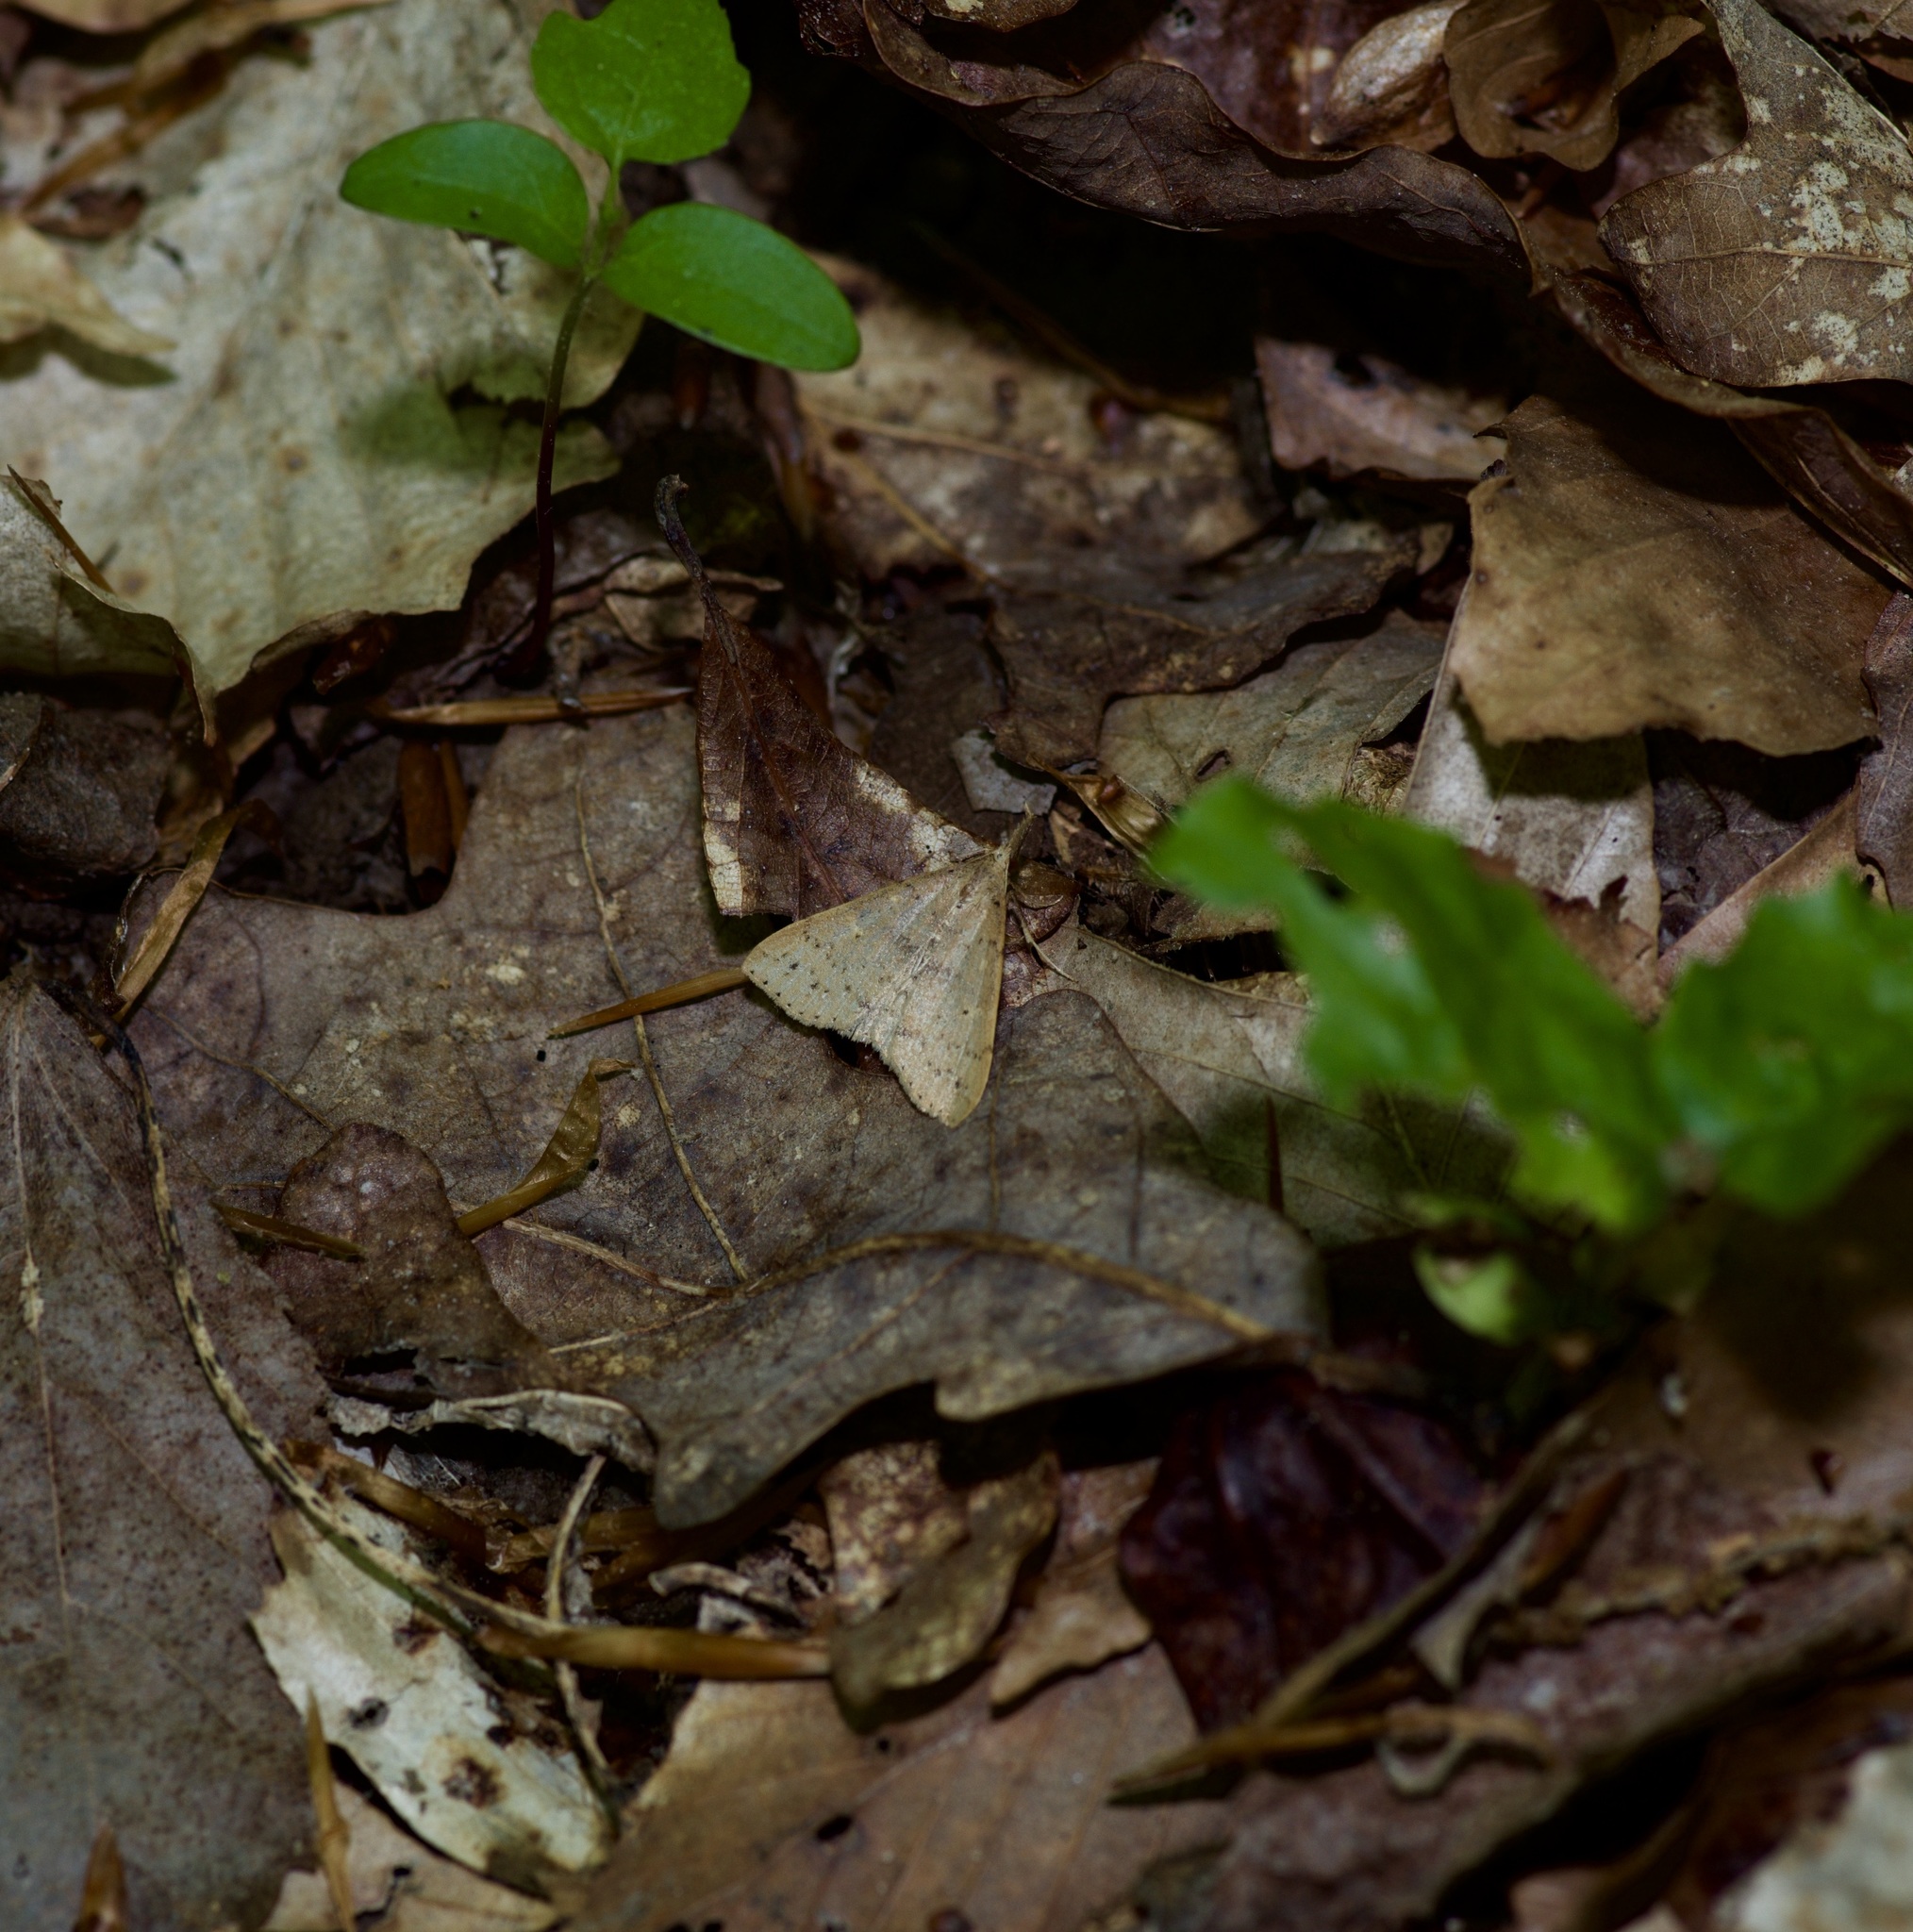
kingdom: Animalia
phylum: Arthropoda
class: Insecta
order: Lepidoptera
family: Erebidae
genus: Renia
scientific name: Renia adspergillus
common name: Speckled renia moth
